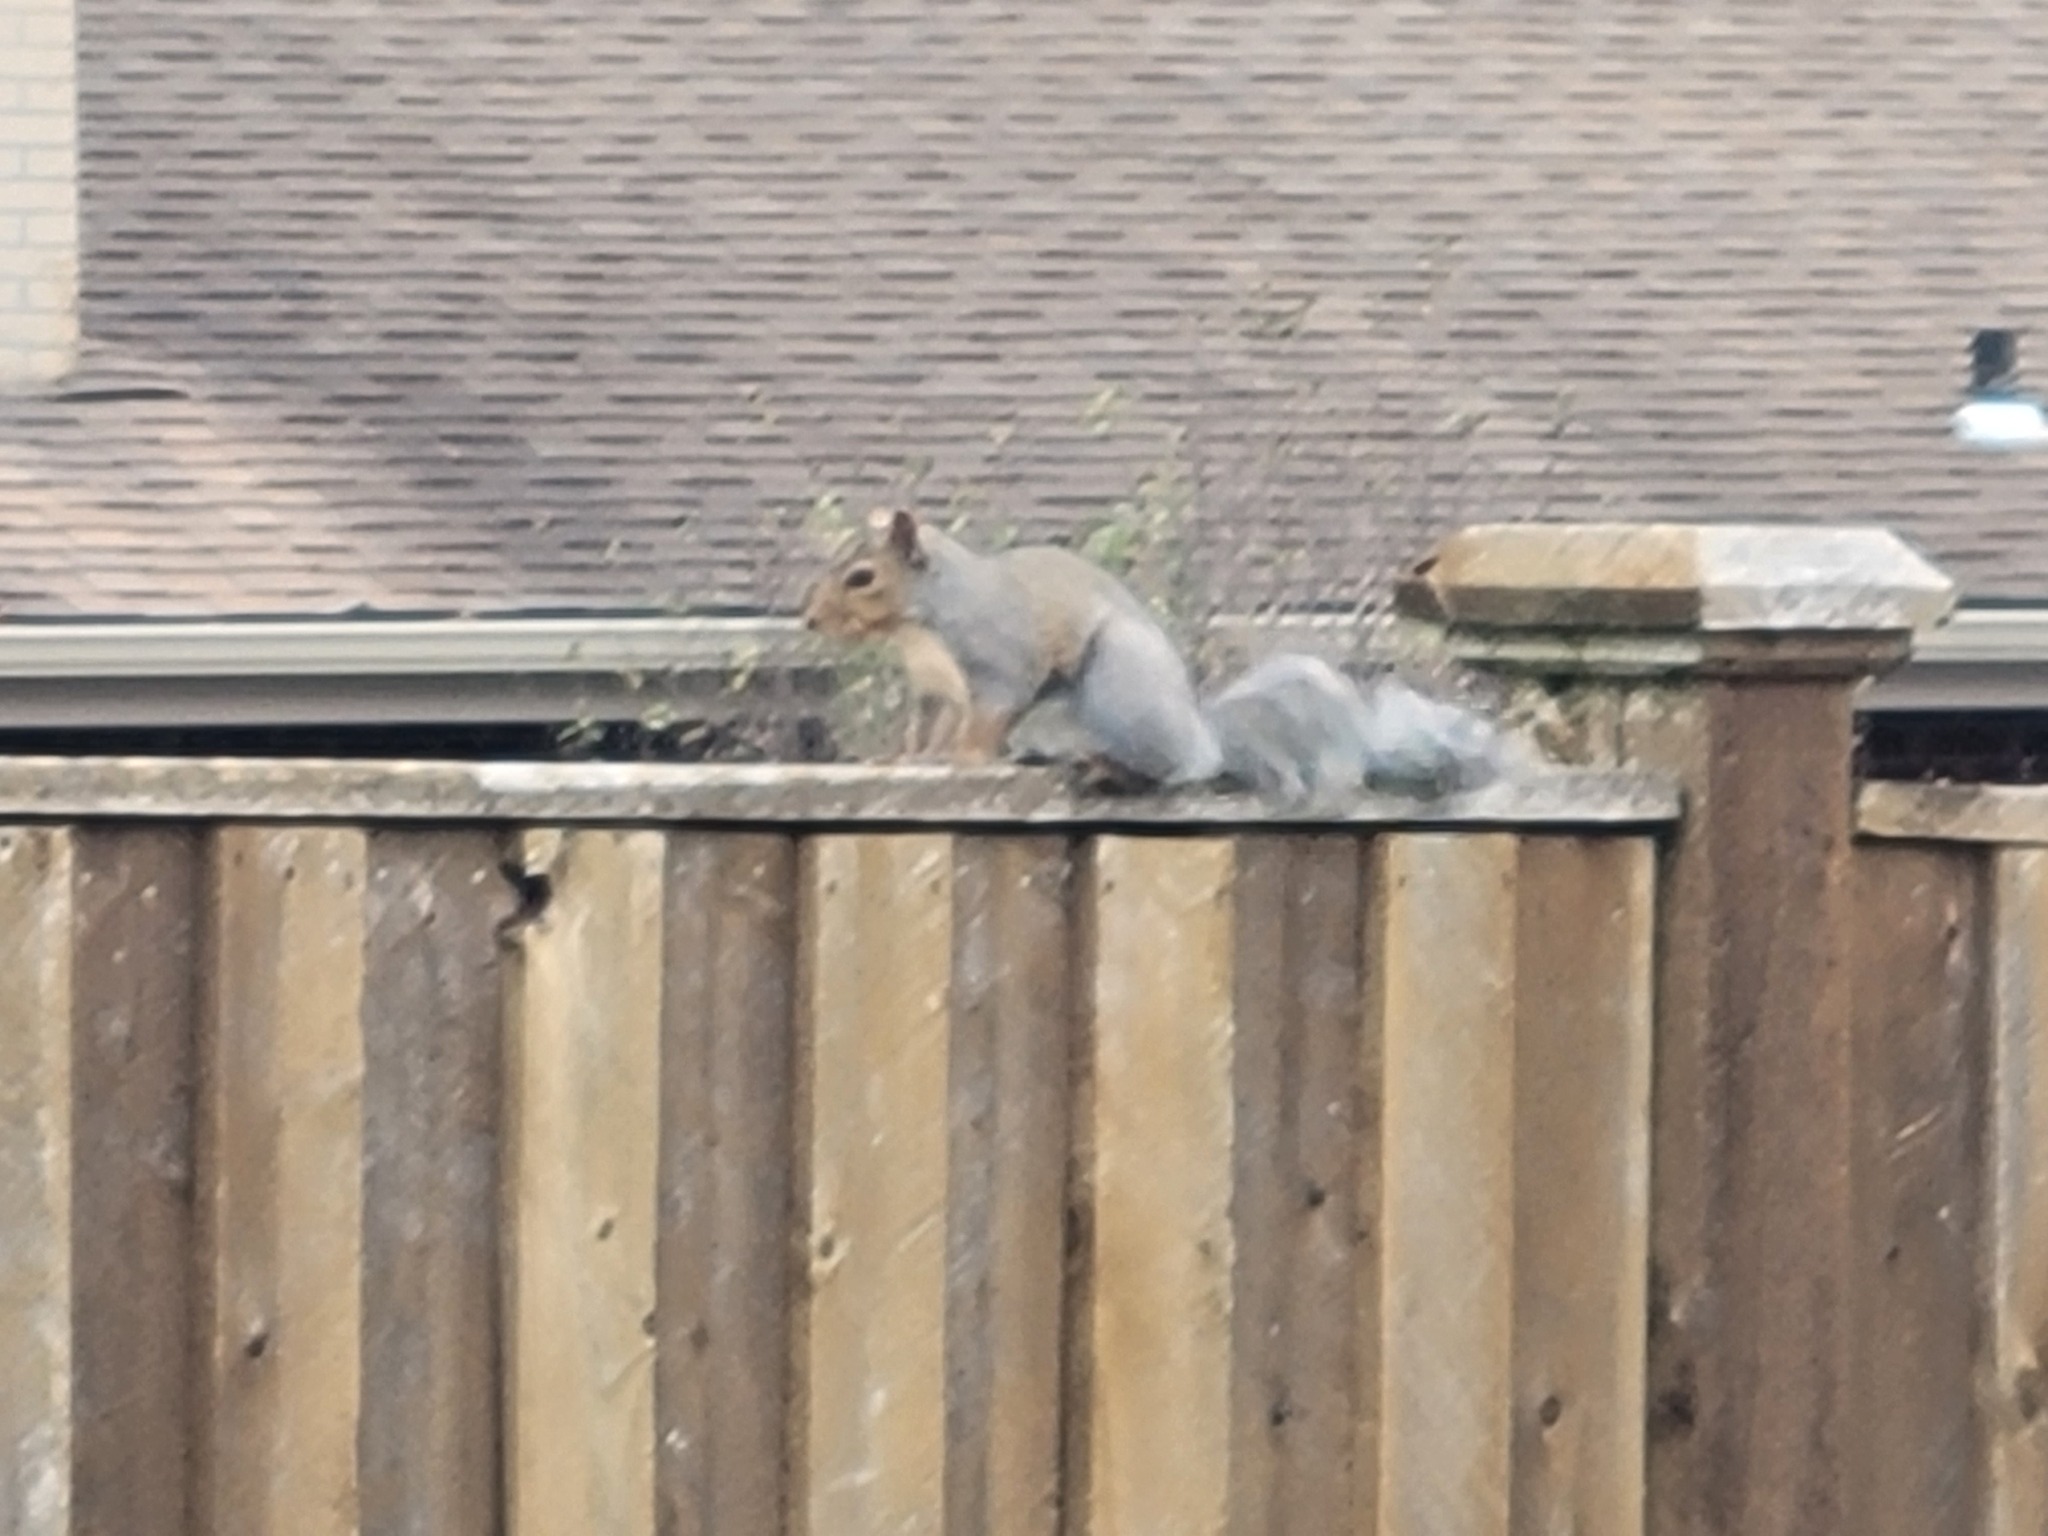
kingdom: Animalia
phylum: Chordata
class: Mammalia
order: Rodentia
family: Sciuridae
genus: Sciurus
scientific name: Sciurus carolinensis
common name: Eastern gray squirrel
